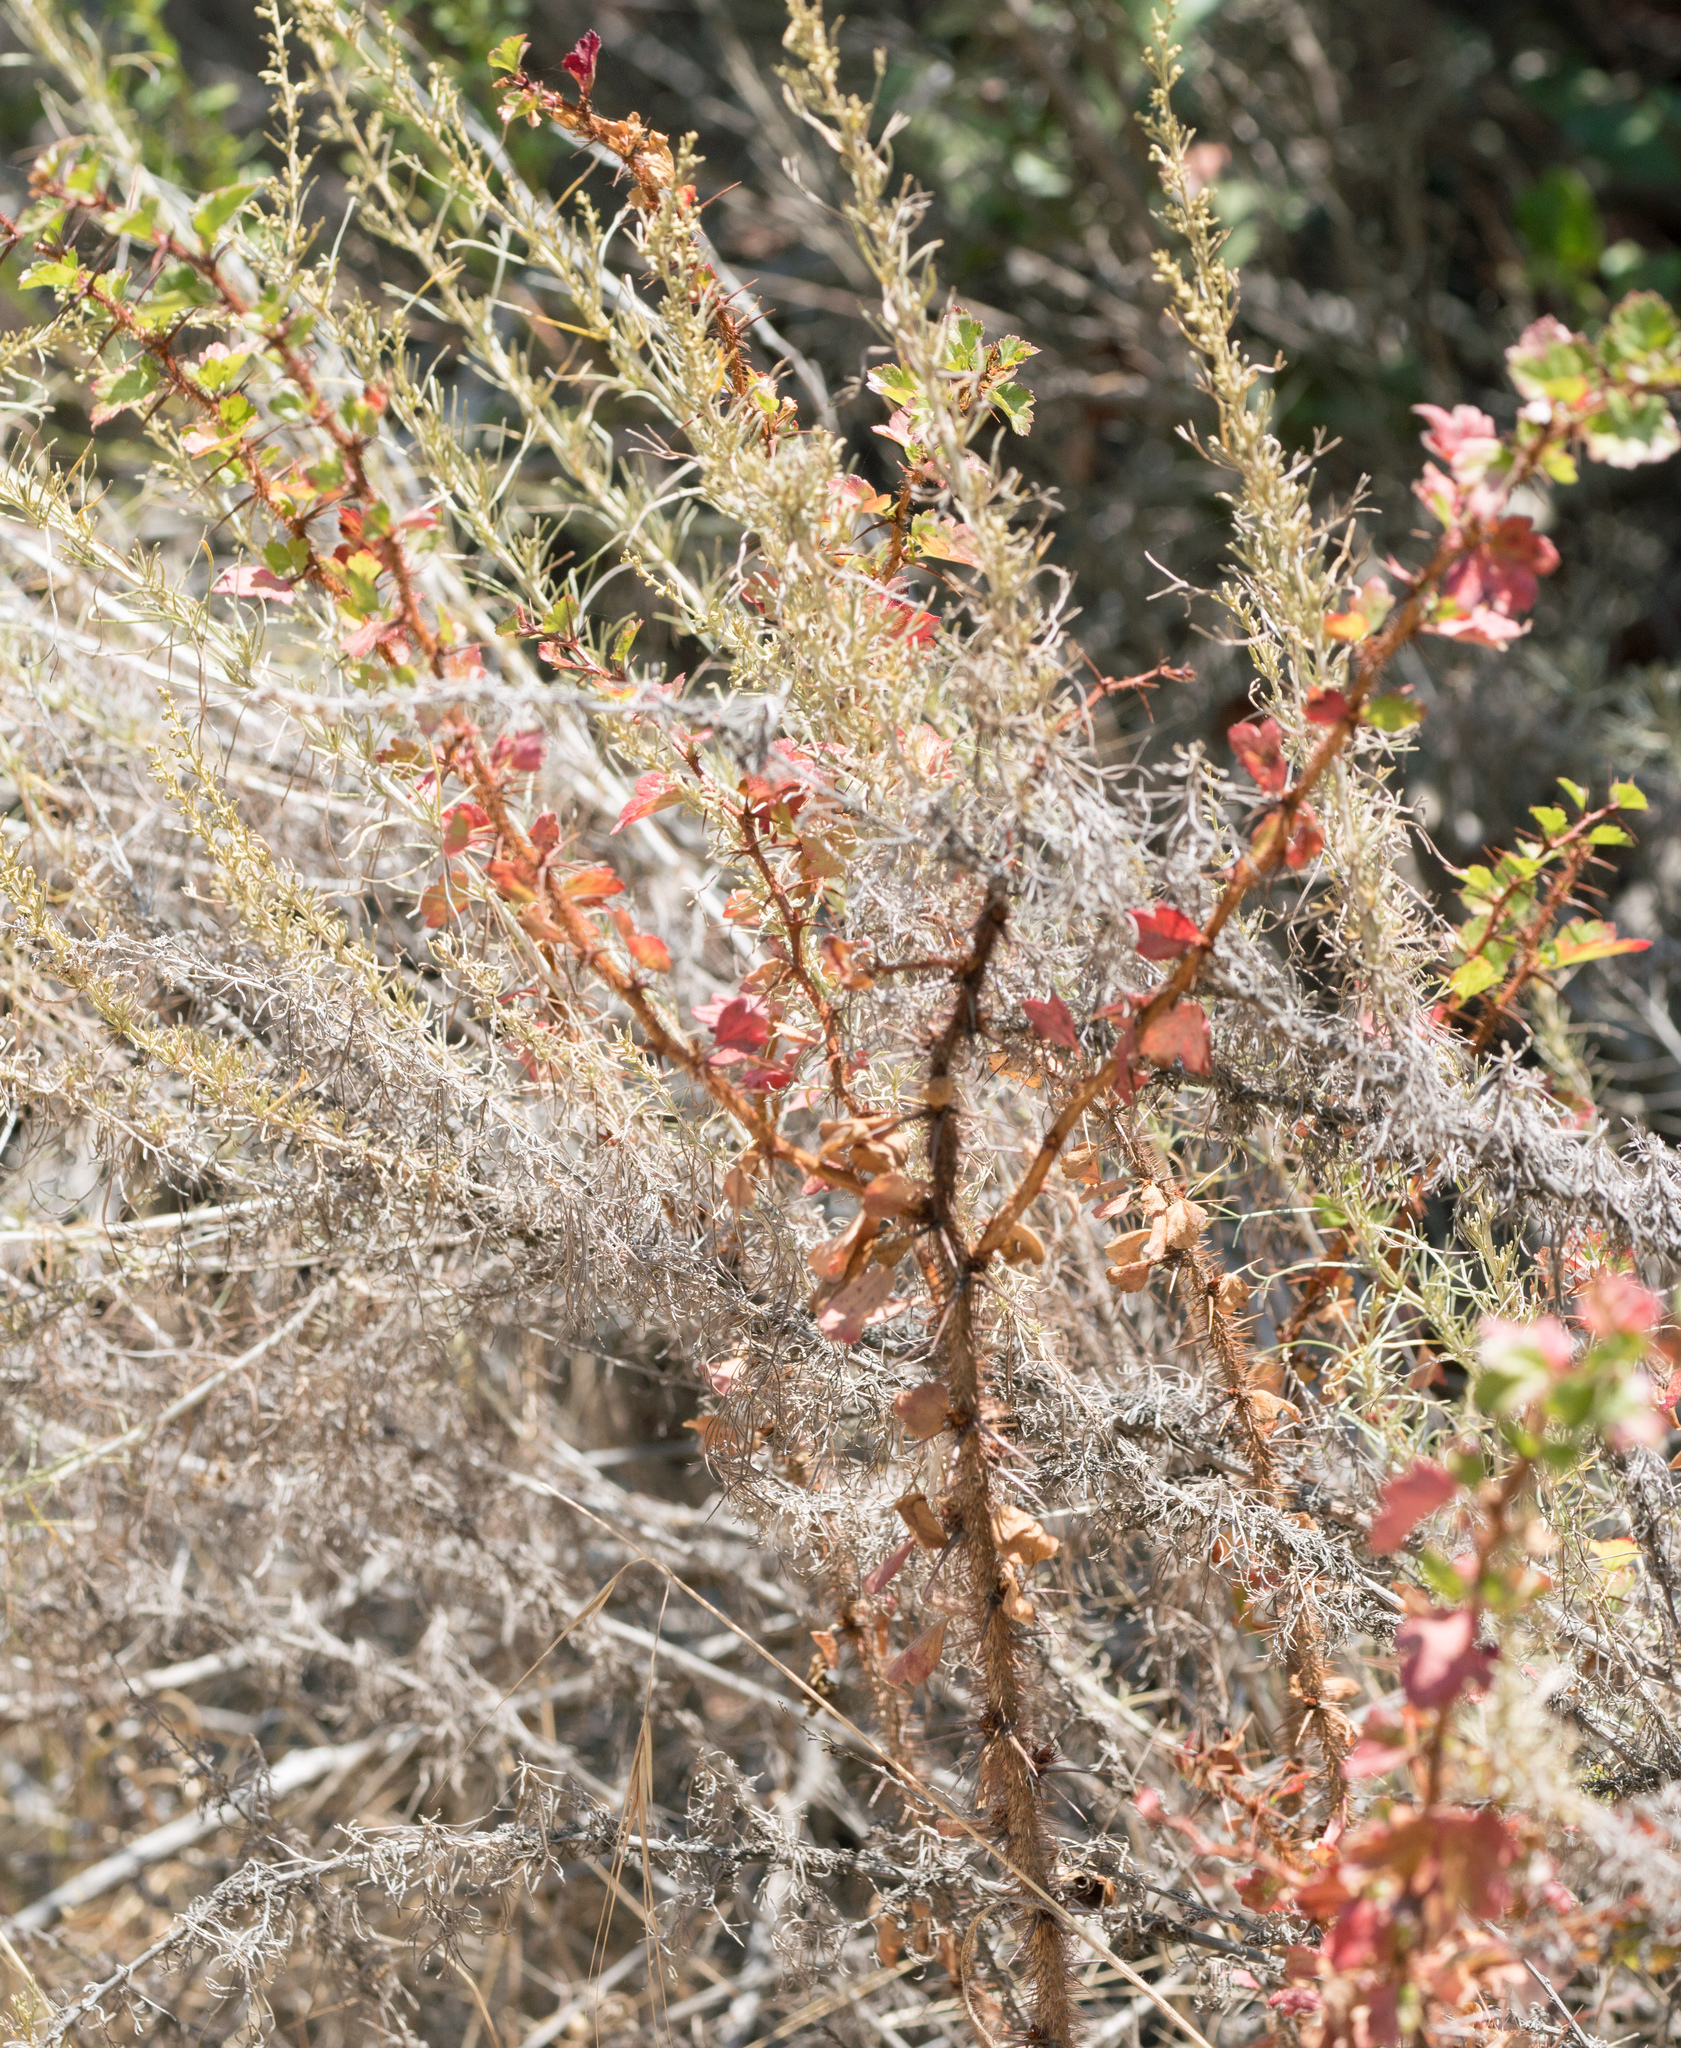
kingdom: Plantae
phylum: Tracheophyta
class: Magnoliopsida
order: Saxifragales
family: Grossulariaceae
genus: Ribes
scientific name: Ribes speciosum
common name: Fuchsia-flower gooseberry
